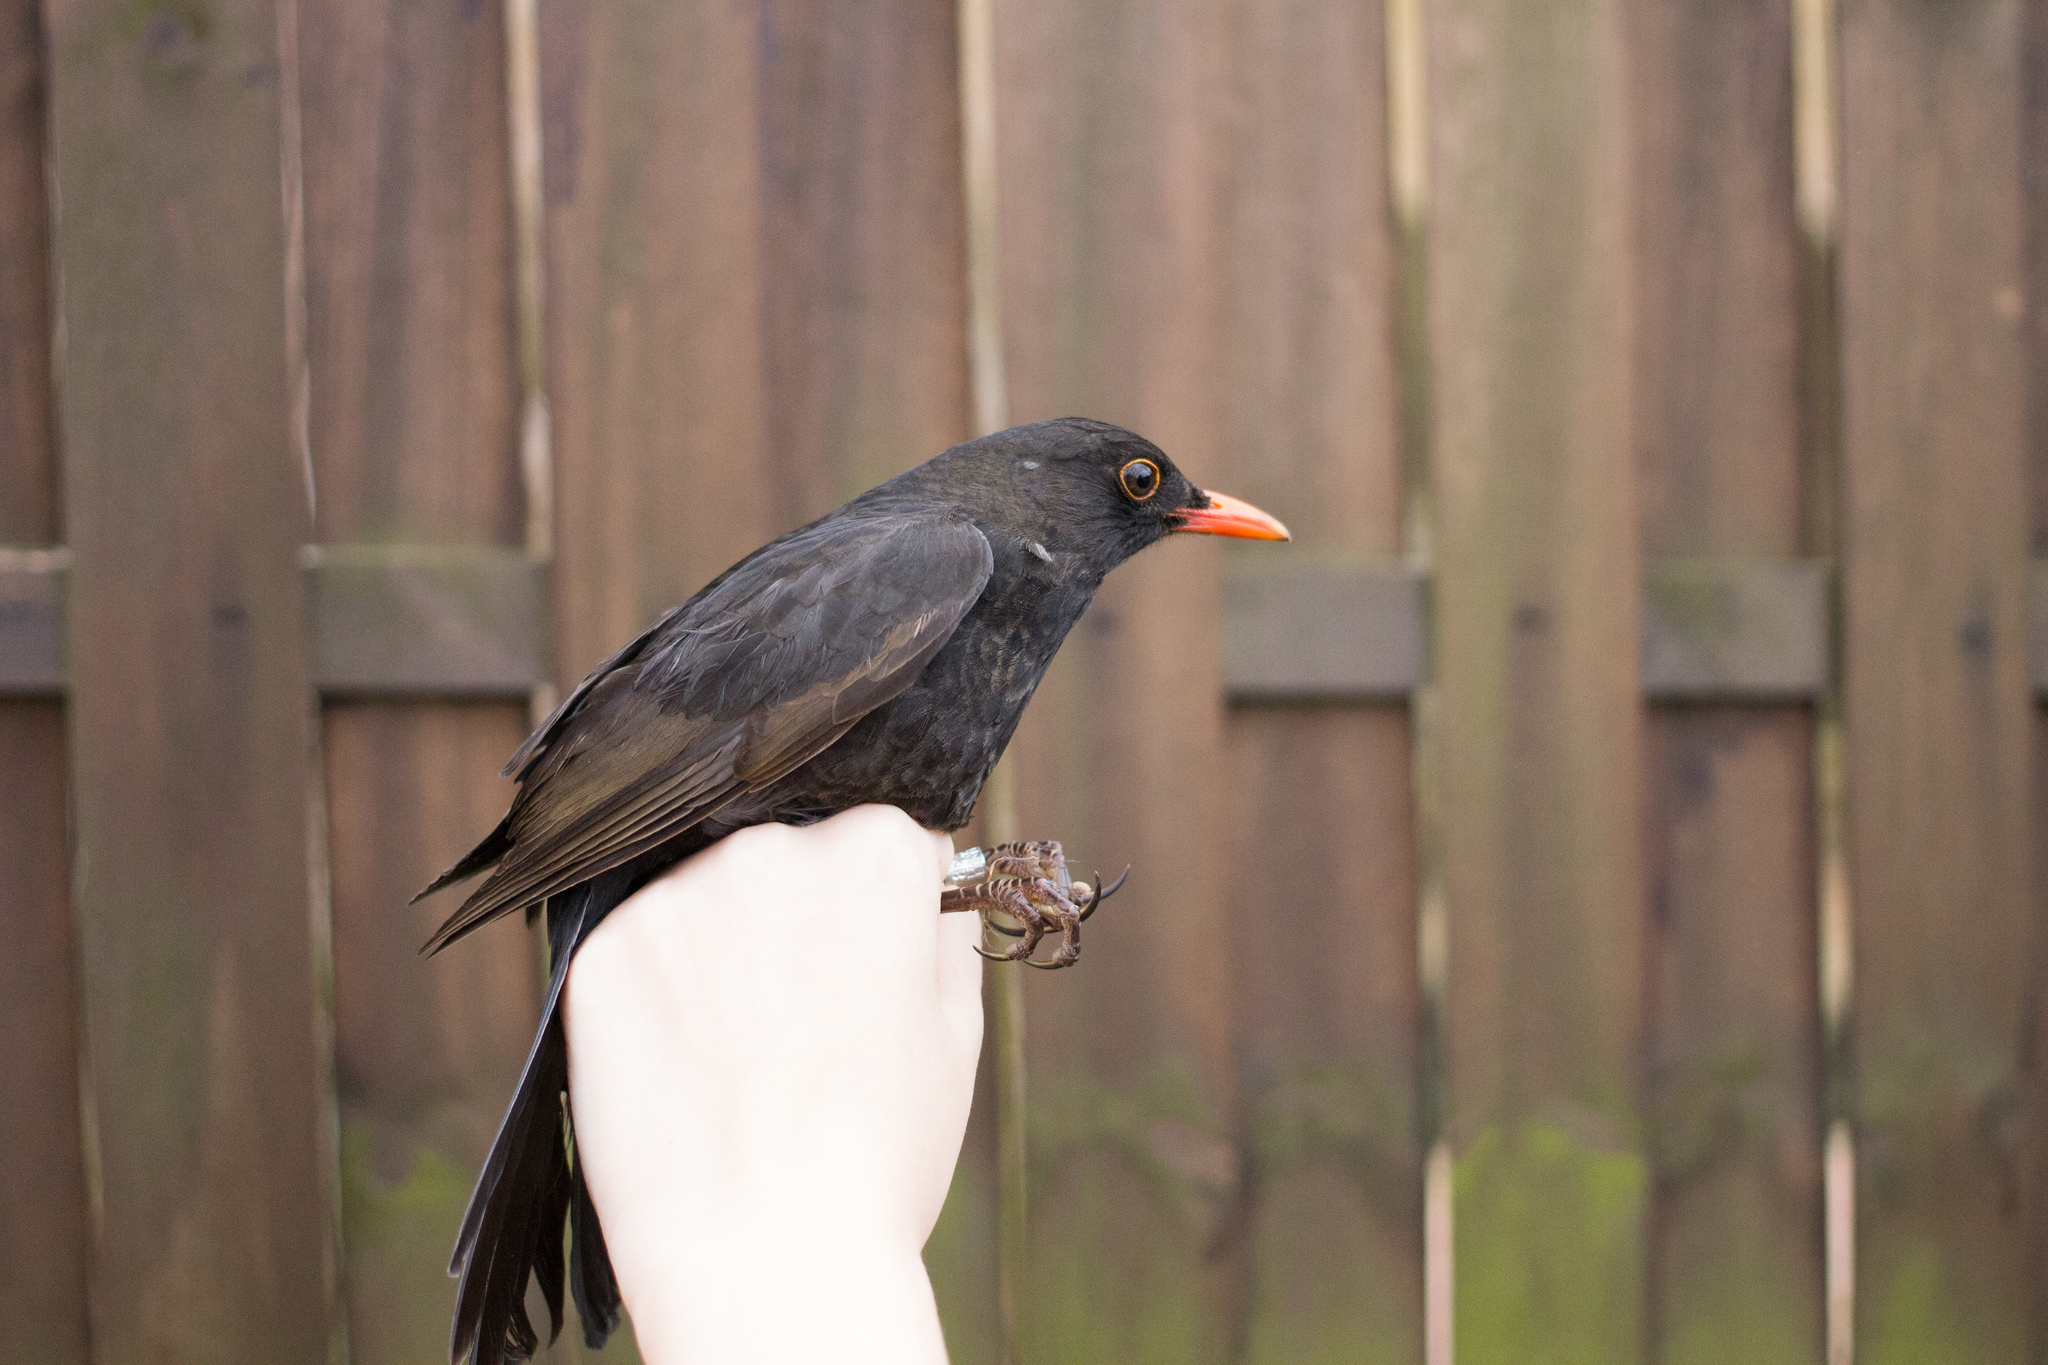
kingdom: Animalia
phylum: Chordata
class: Aves
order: Passeriformes
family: Turdidae
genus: Turdus
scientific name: Turdus merula
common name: Common blackbird
